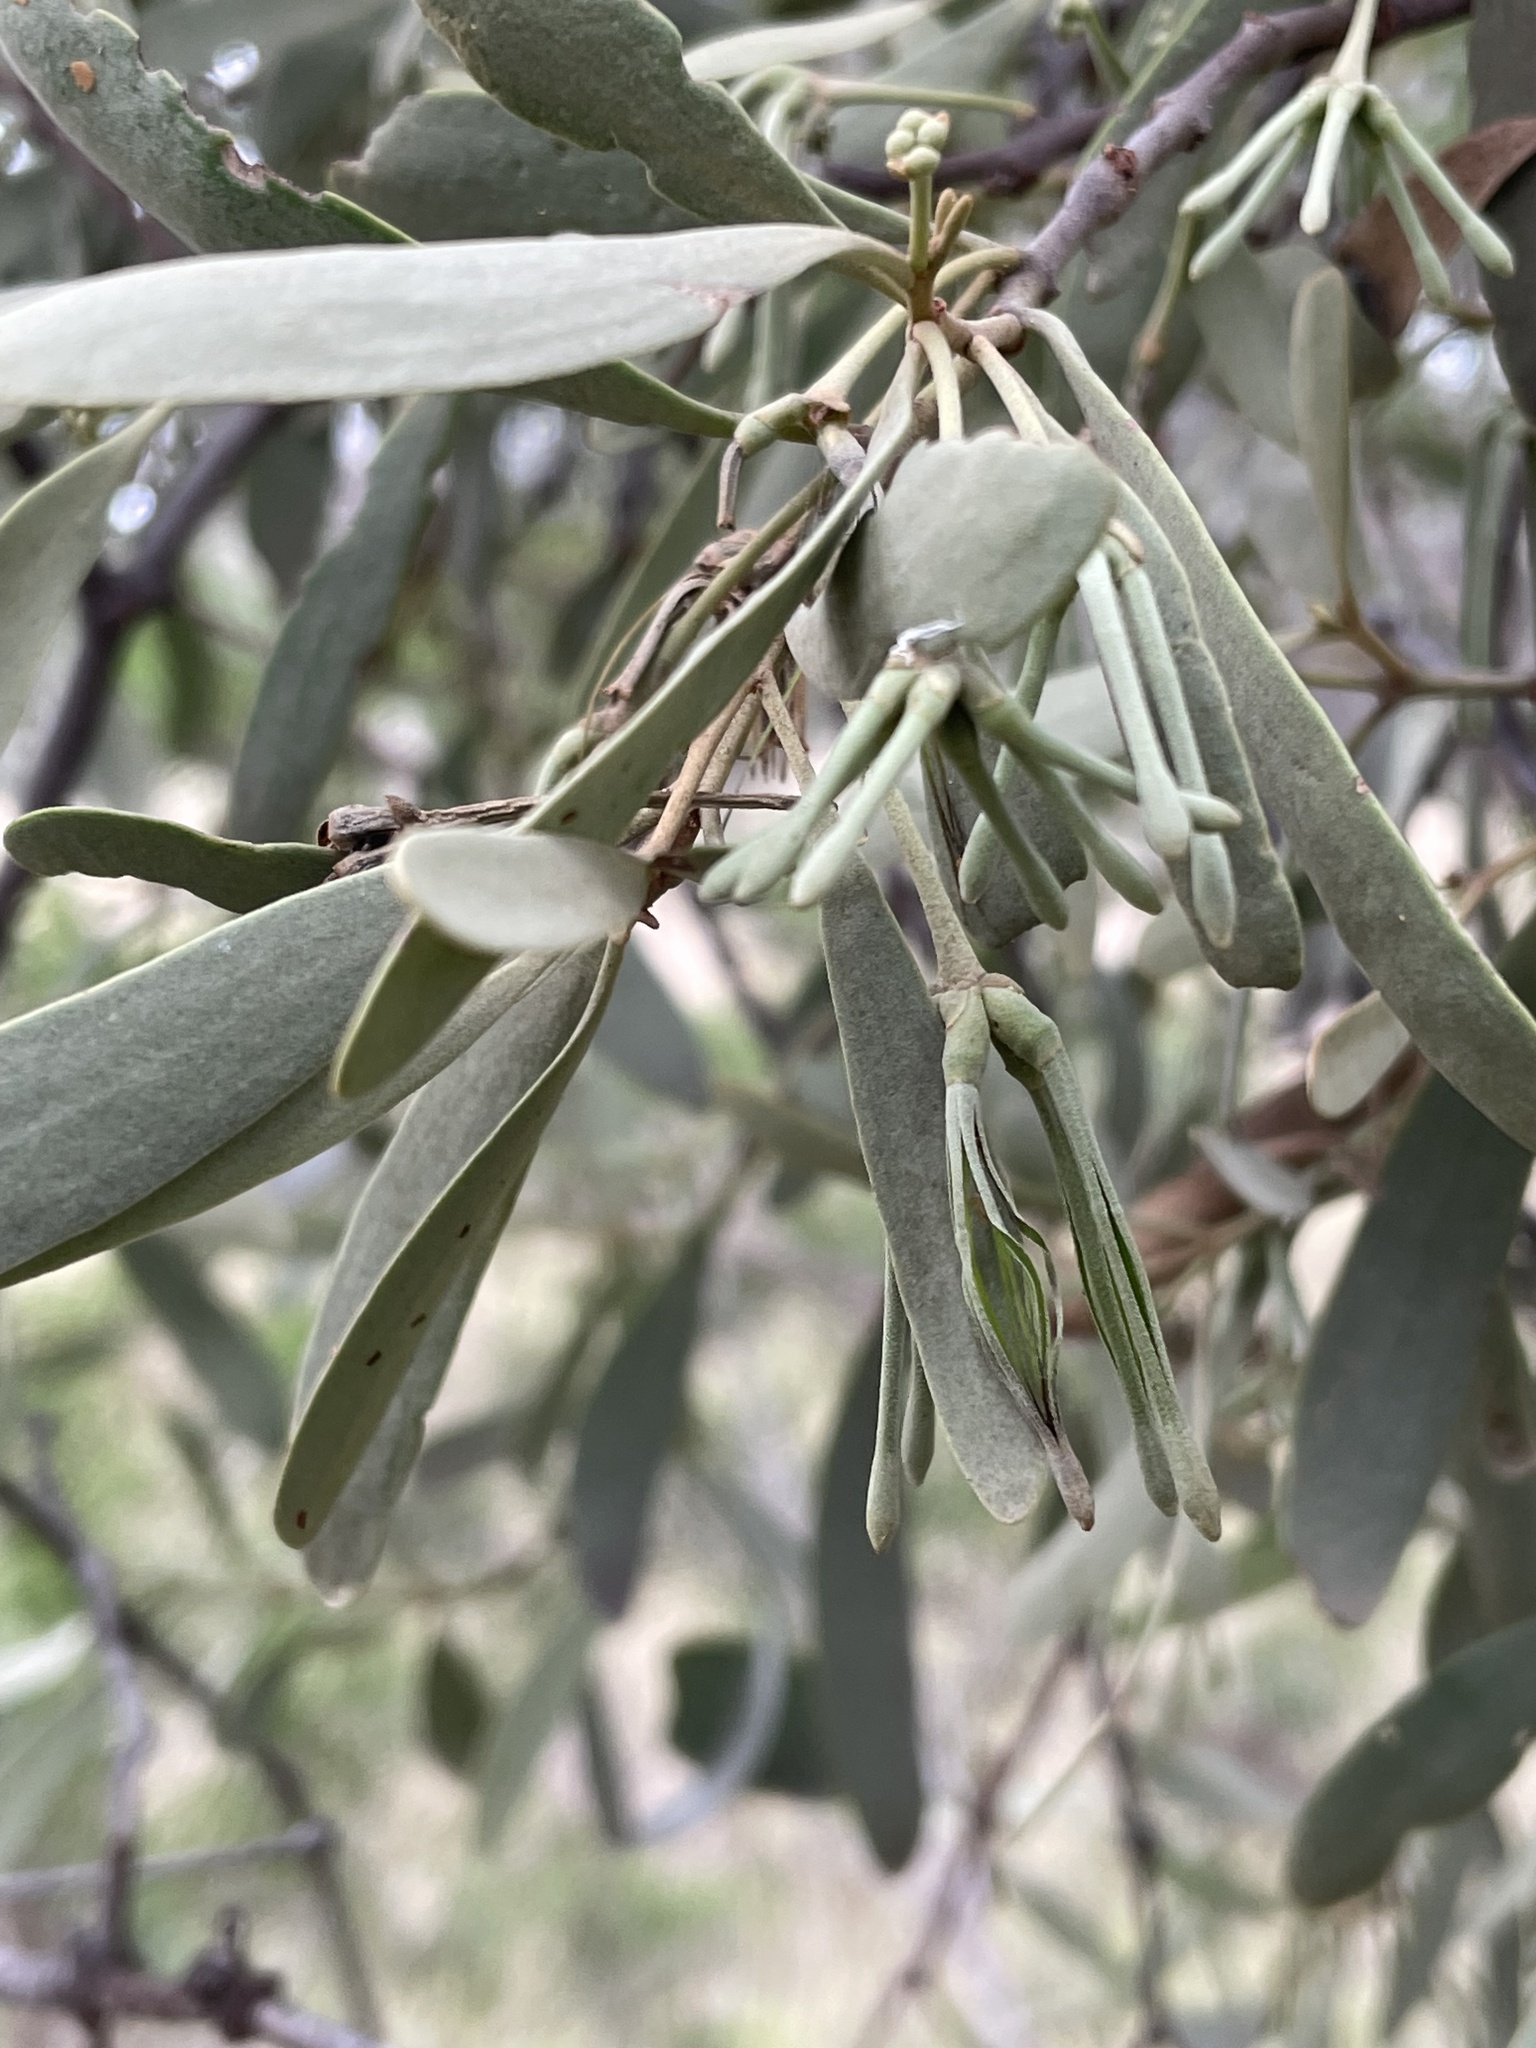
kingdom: Plantae
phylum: Tracheophyta
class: Magnoliopsida
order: Santalales
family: Loranthaceae
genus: Amyema
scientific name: Amyema maidenii
